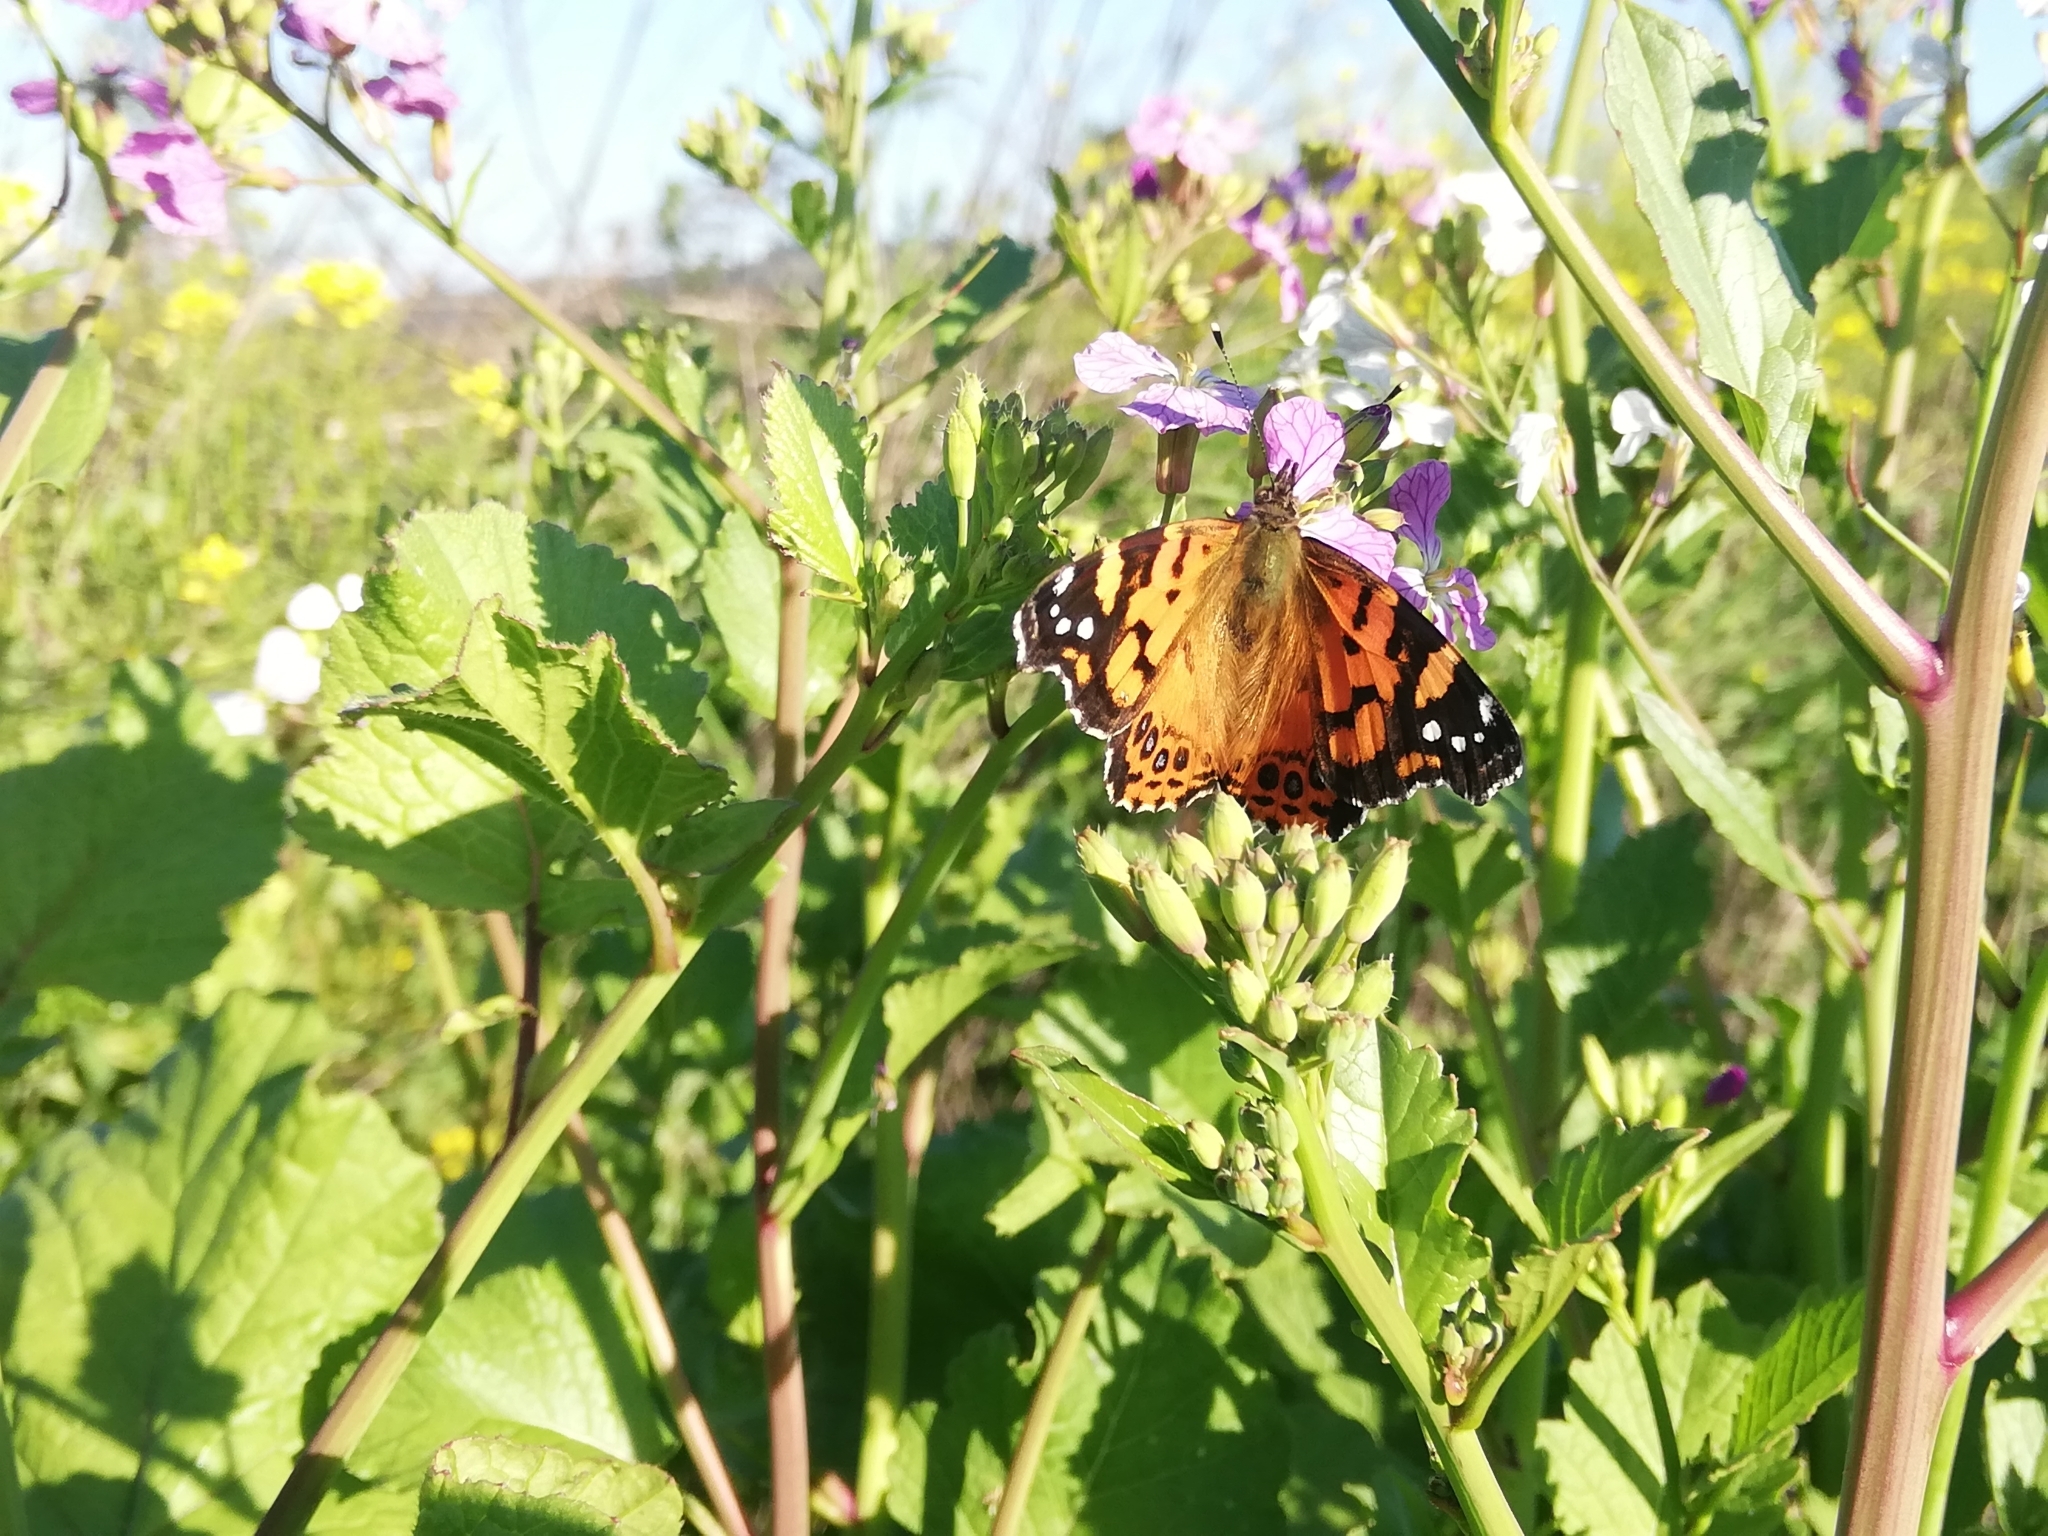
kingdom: Animalia
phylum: Arthropoda
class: Insecta
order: Lepidoptera
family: Nymphalidae
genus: Vanessa
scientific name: Vanessa carye
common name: Subtropical lady
